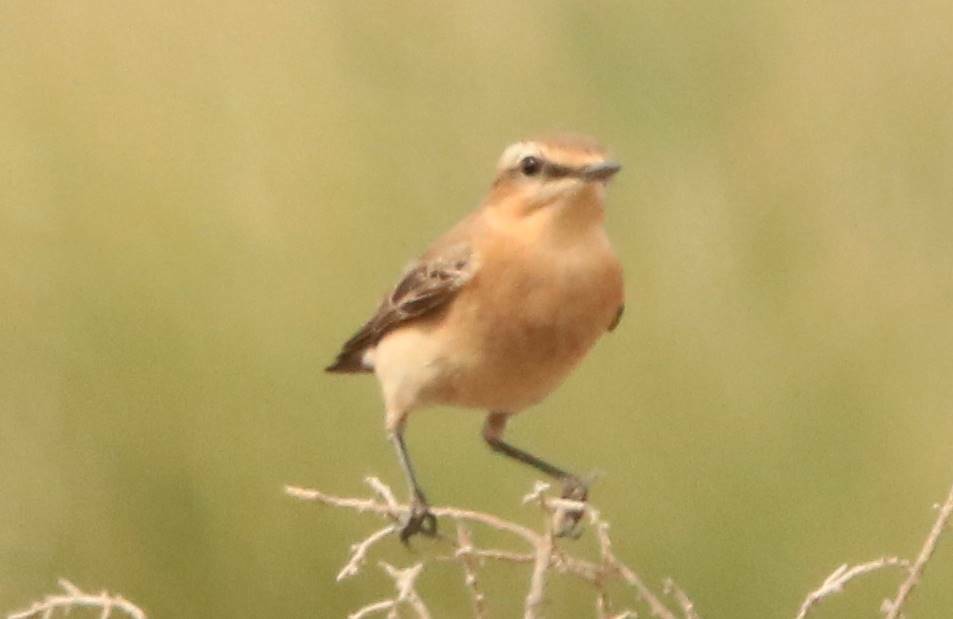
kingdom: Animalia
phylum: Chordata
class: Aves
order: Passeriformes
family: Muscicapidae
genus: Oenanthe
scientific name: Oenanthe oenanthe
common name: Northern wheatear
